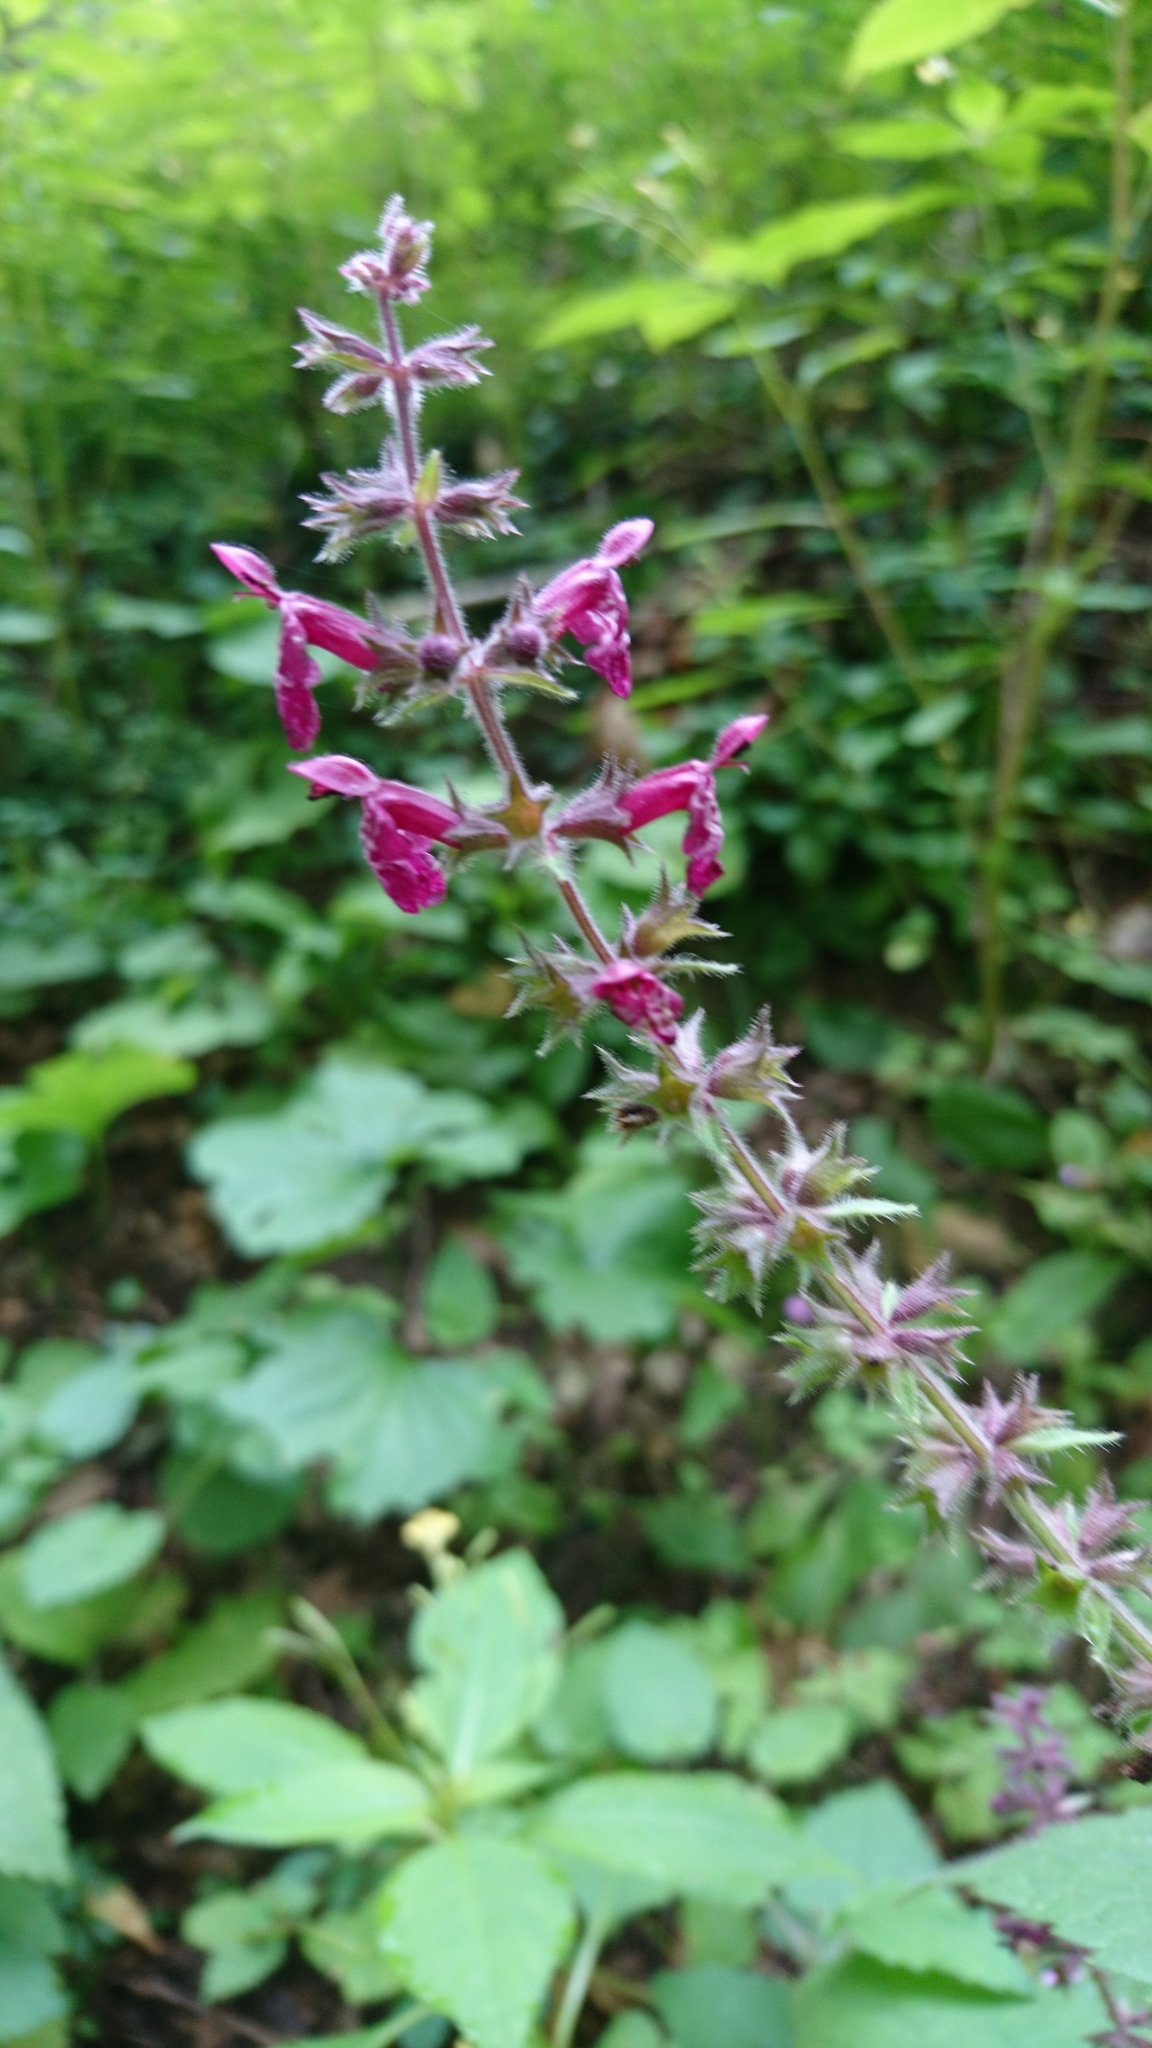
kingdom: Plantae
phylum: Tracheophyta
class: Magnoliopsida
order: Lamiales
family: Lamiaceae
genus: Stachys
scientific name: Stachys sylvatica
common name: Hedge woundwort
